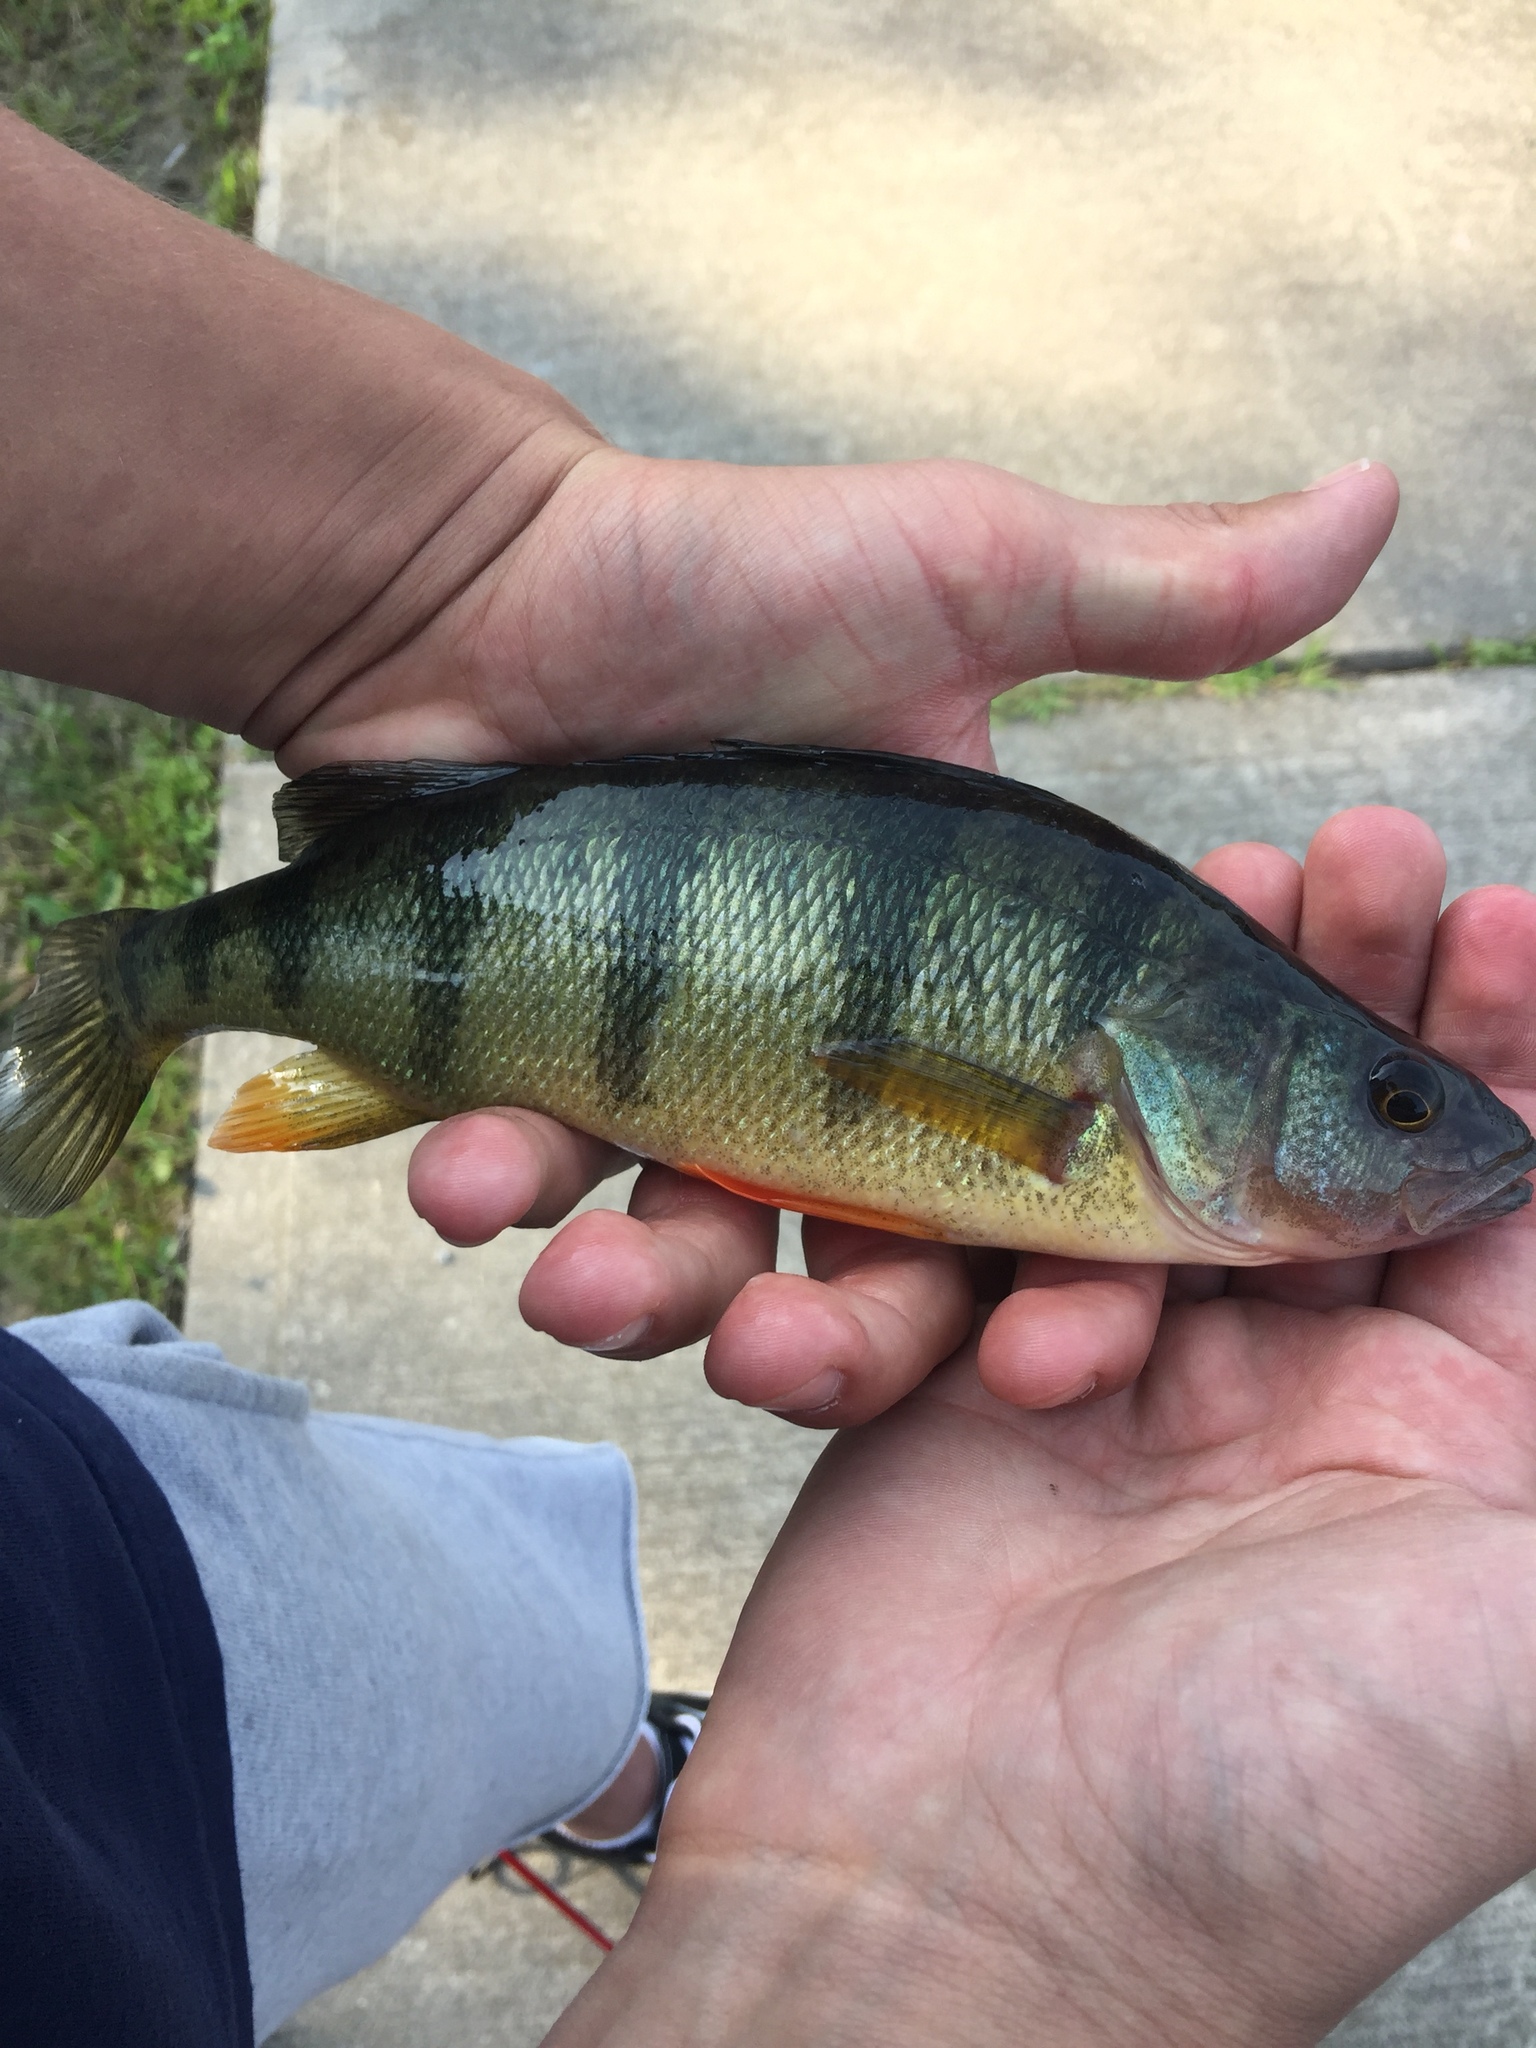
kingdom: Animalia
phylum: Chordata
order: Perciformes
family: Percidae
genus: Perca
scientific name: Perca flavescens
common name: Yellow perch
